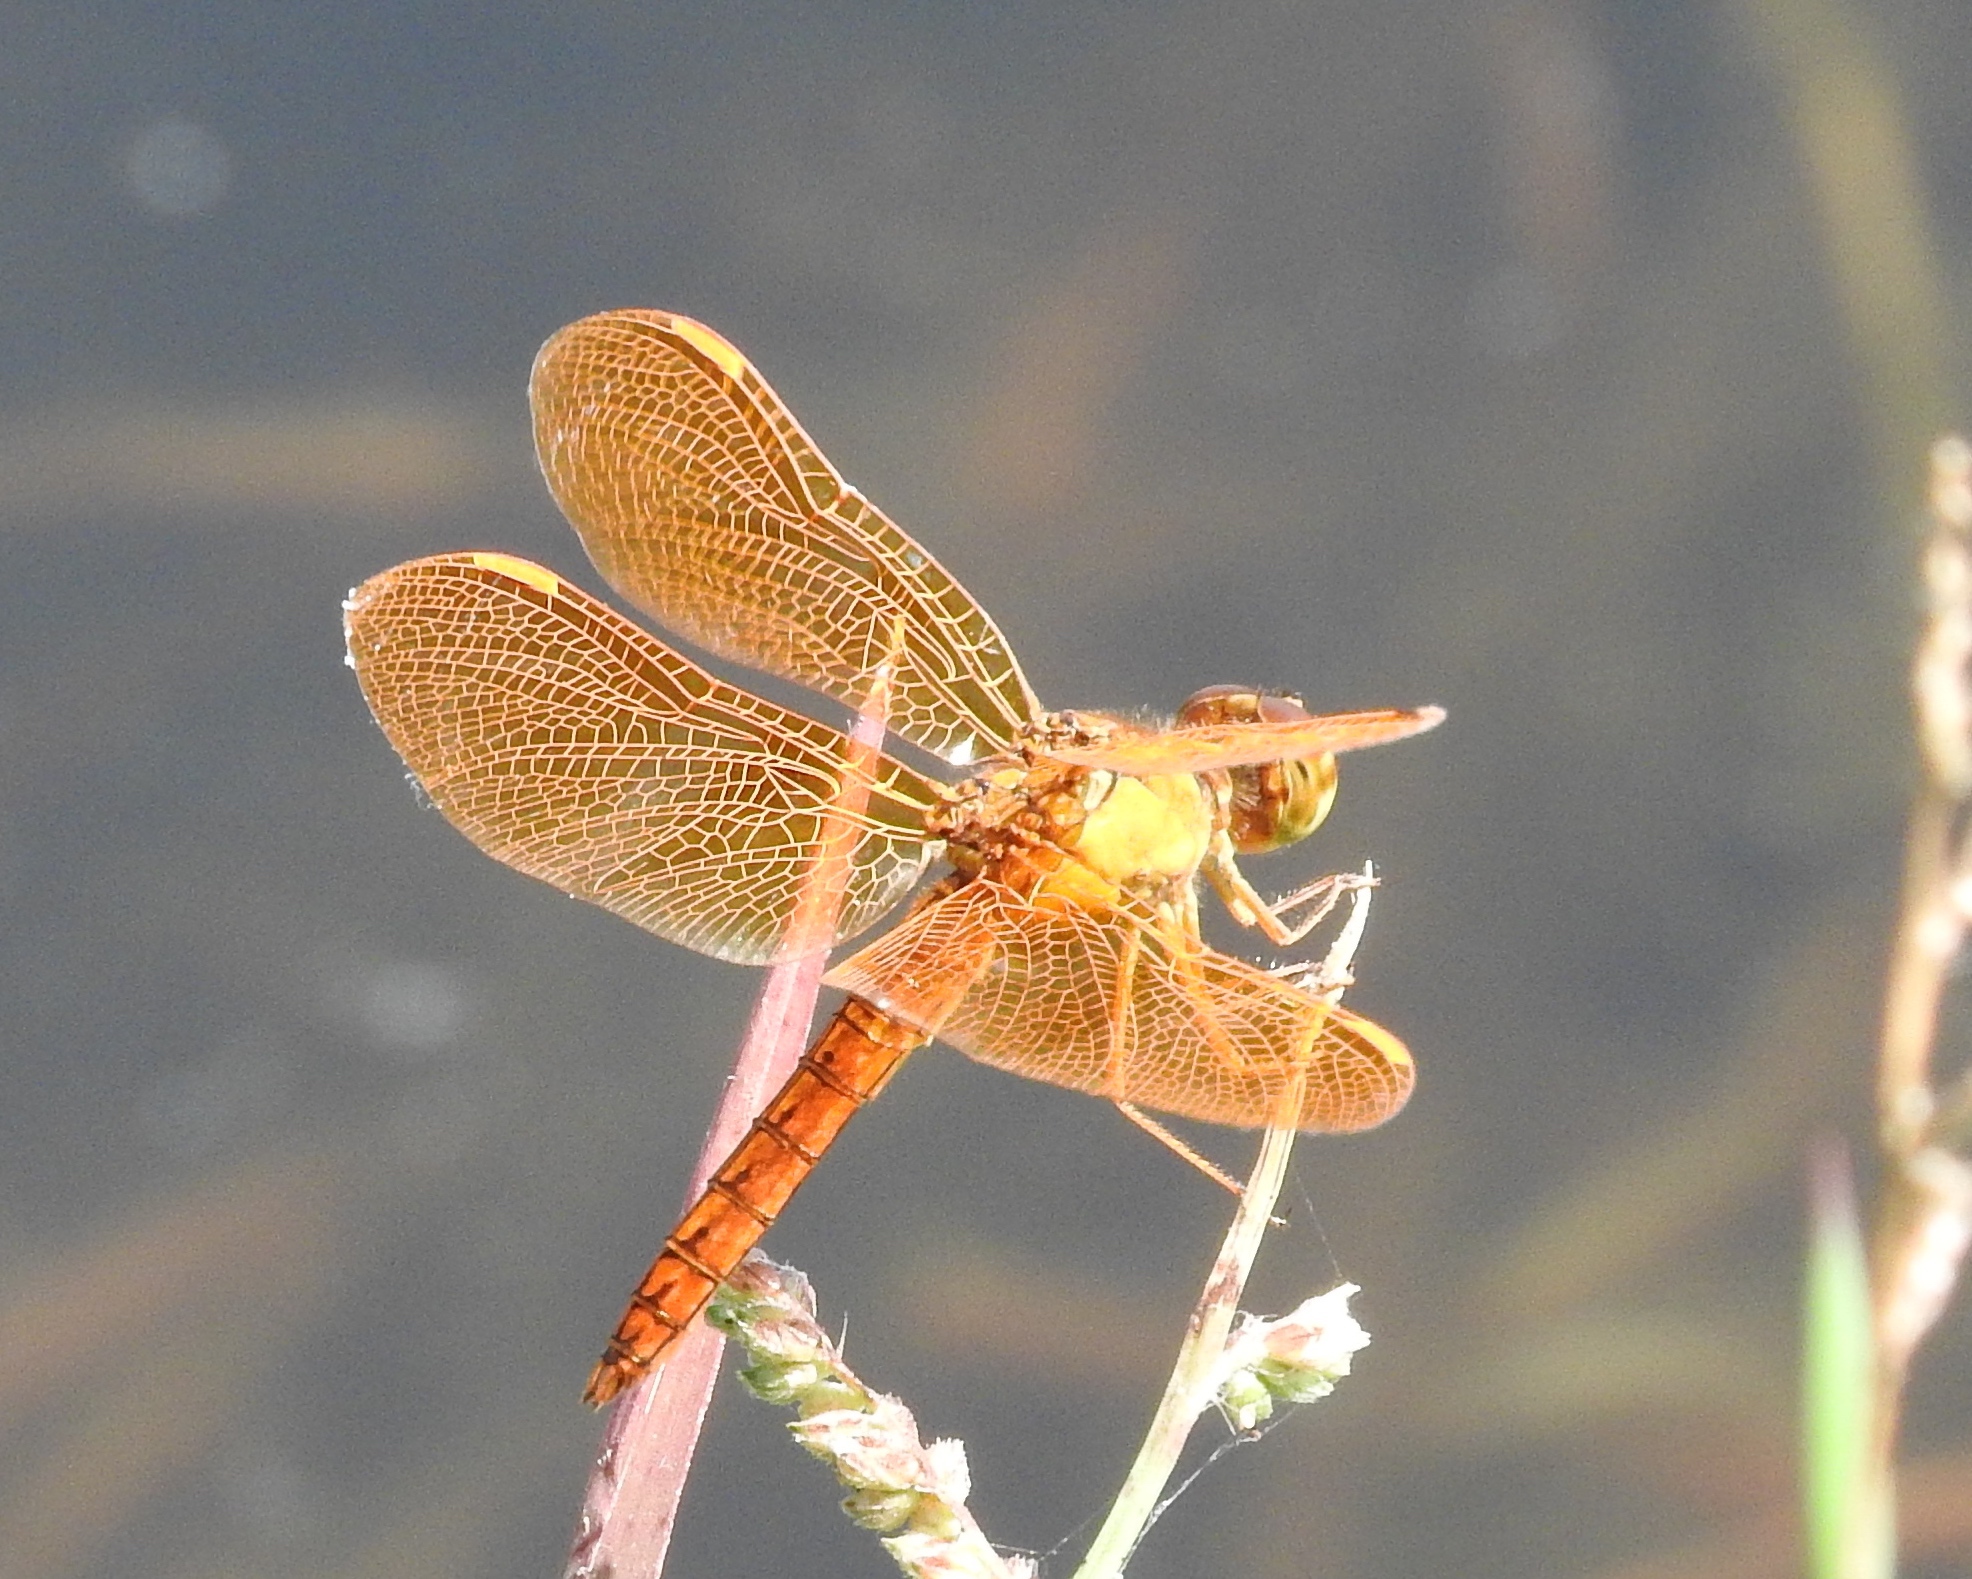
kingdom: Animalia
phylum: Arthropoda
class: Insecta
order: Odonata
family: Libellulidae
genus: Perithemis
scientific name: Perithemis intensa
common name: Mexican amberwing
